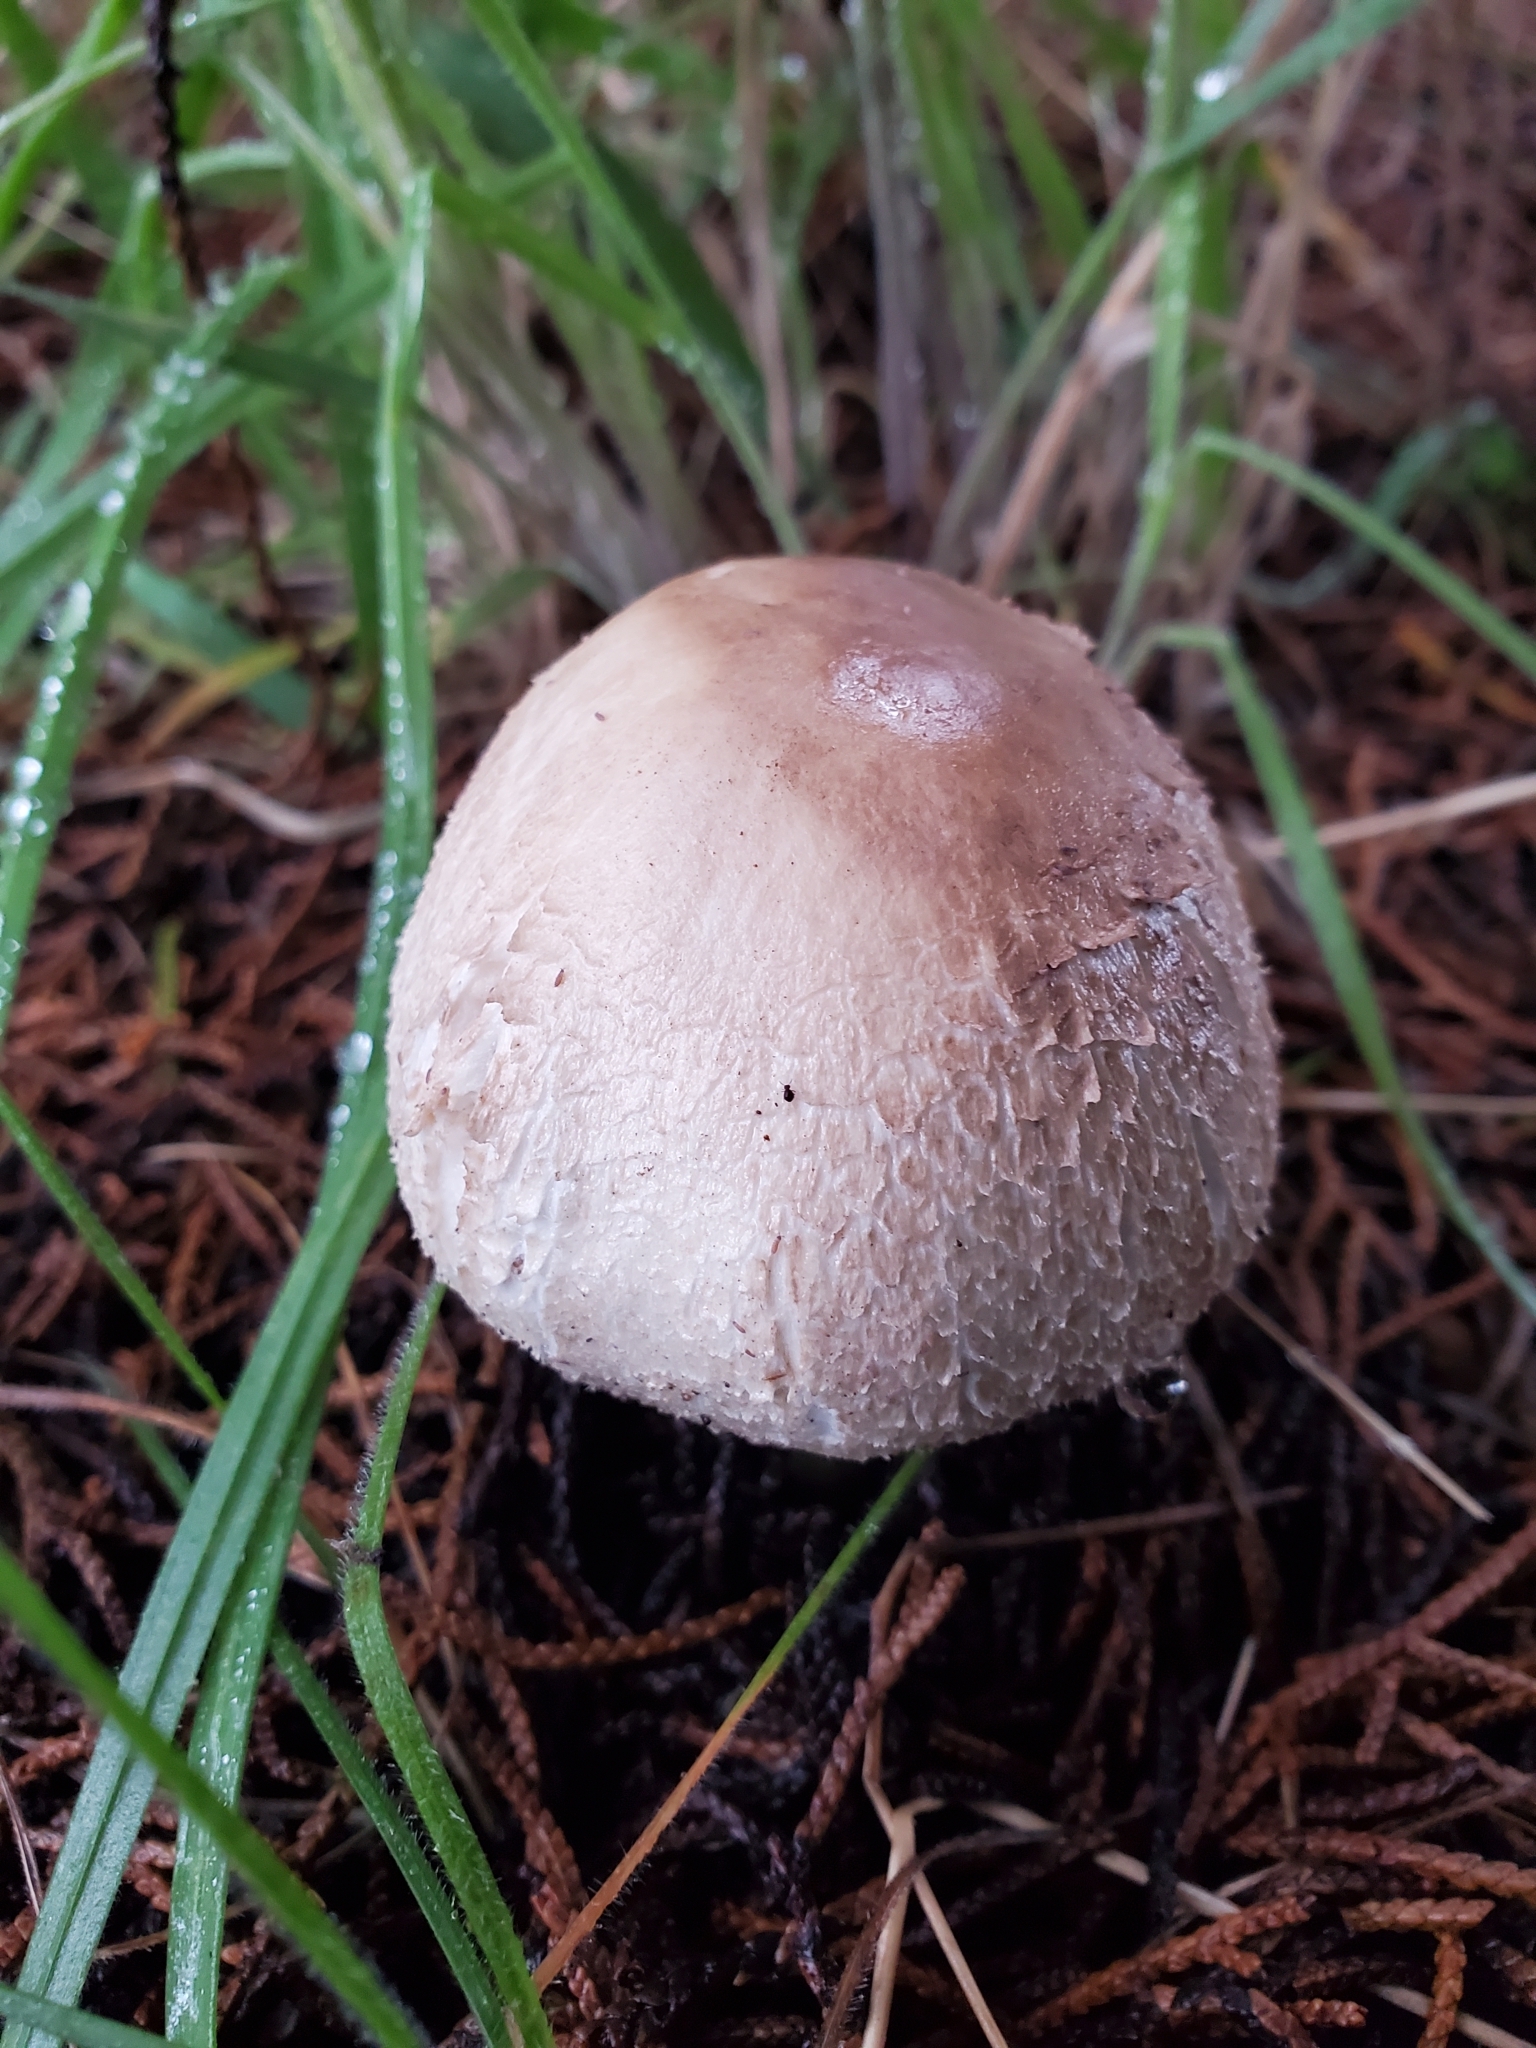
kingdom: Fungi
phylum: Basidiomycota
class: Agaricomycetes
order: Agaricales
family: Agaricaceae
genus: Agaricus
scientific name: Agaricus xanthodermus
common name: Yellow stainer
